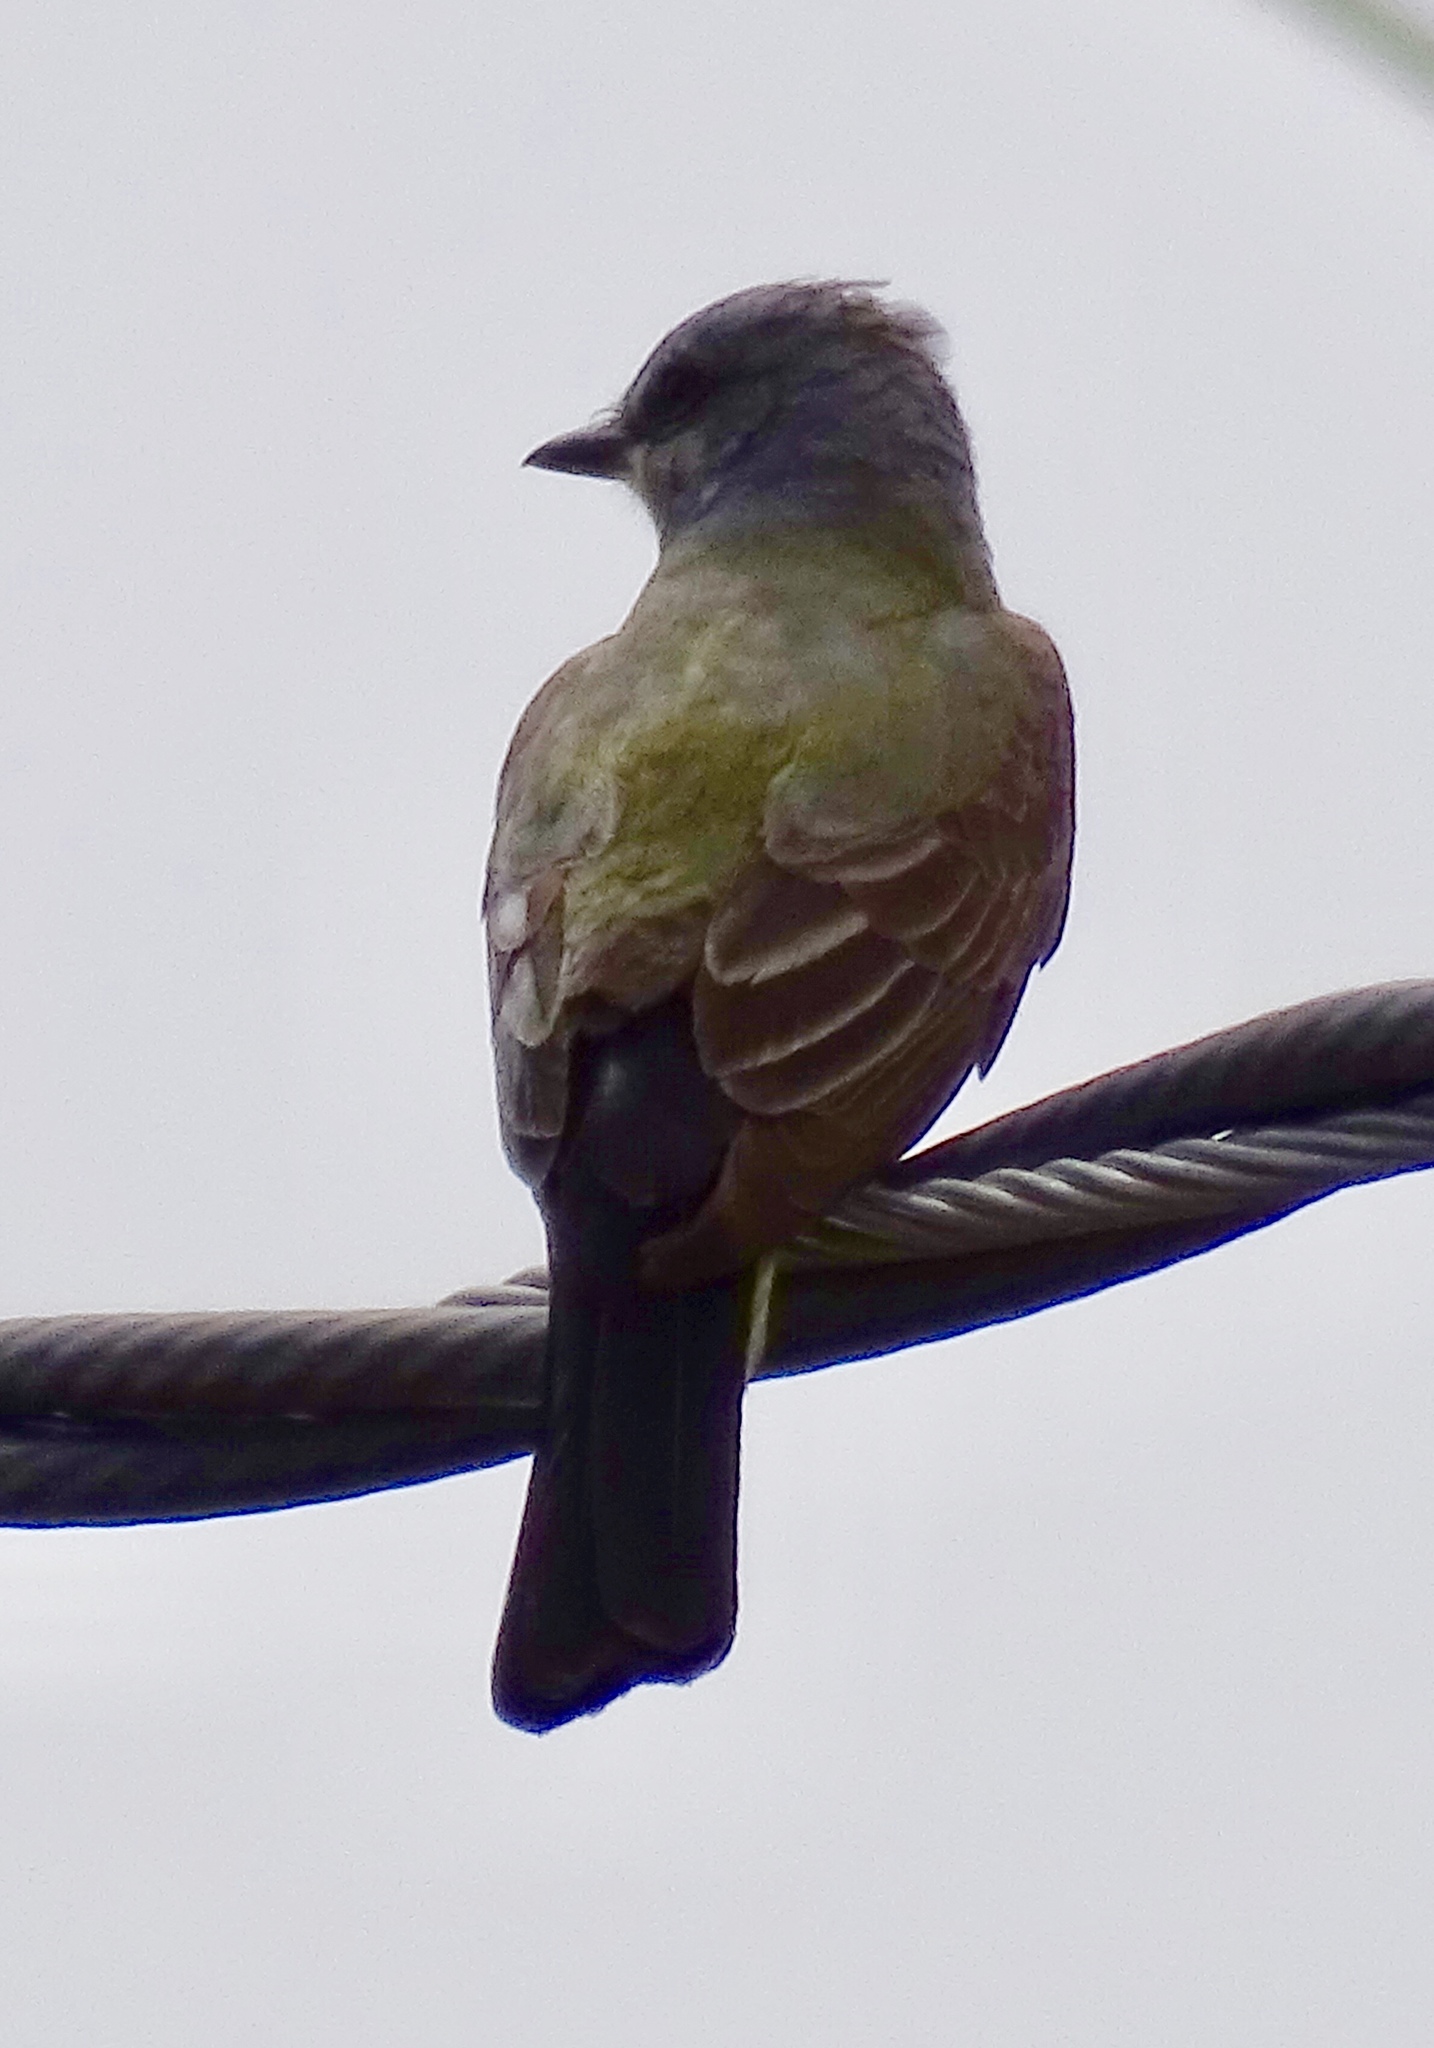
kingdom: Animalia
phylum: Chordata
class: Aves
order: Passeriformes
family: Tyrannidae
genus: Tyrannus
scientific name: Tyrannus vociferans
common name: Cassin's kingbird
